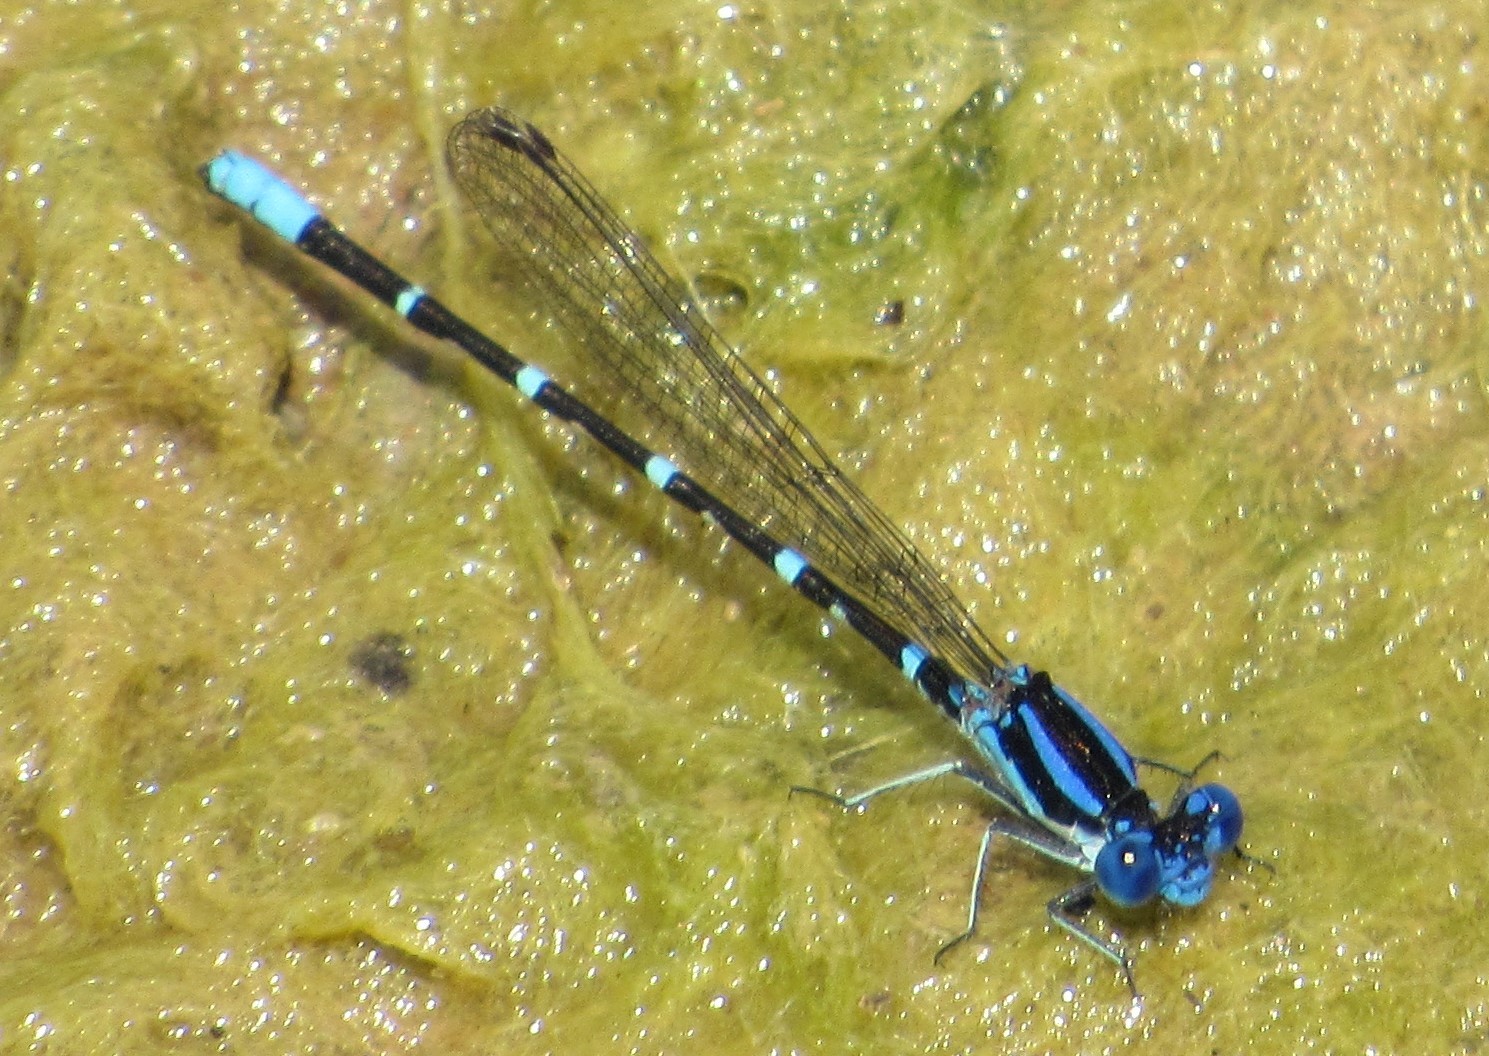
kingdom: Animalia
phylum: Arthropoda
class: Insecta
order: Odonata
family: Coenagrionidae
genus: Argia
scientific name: Argia sedula
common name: Blue-ringed dancer
